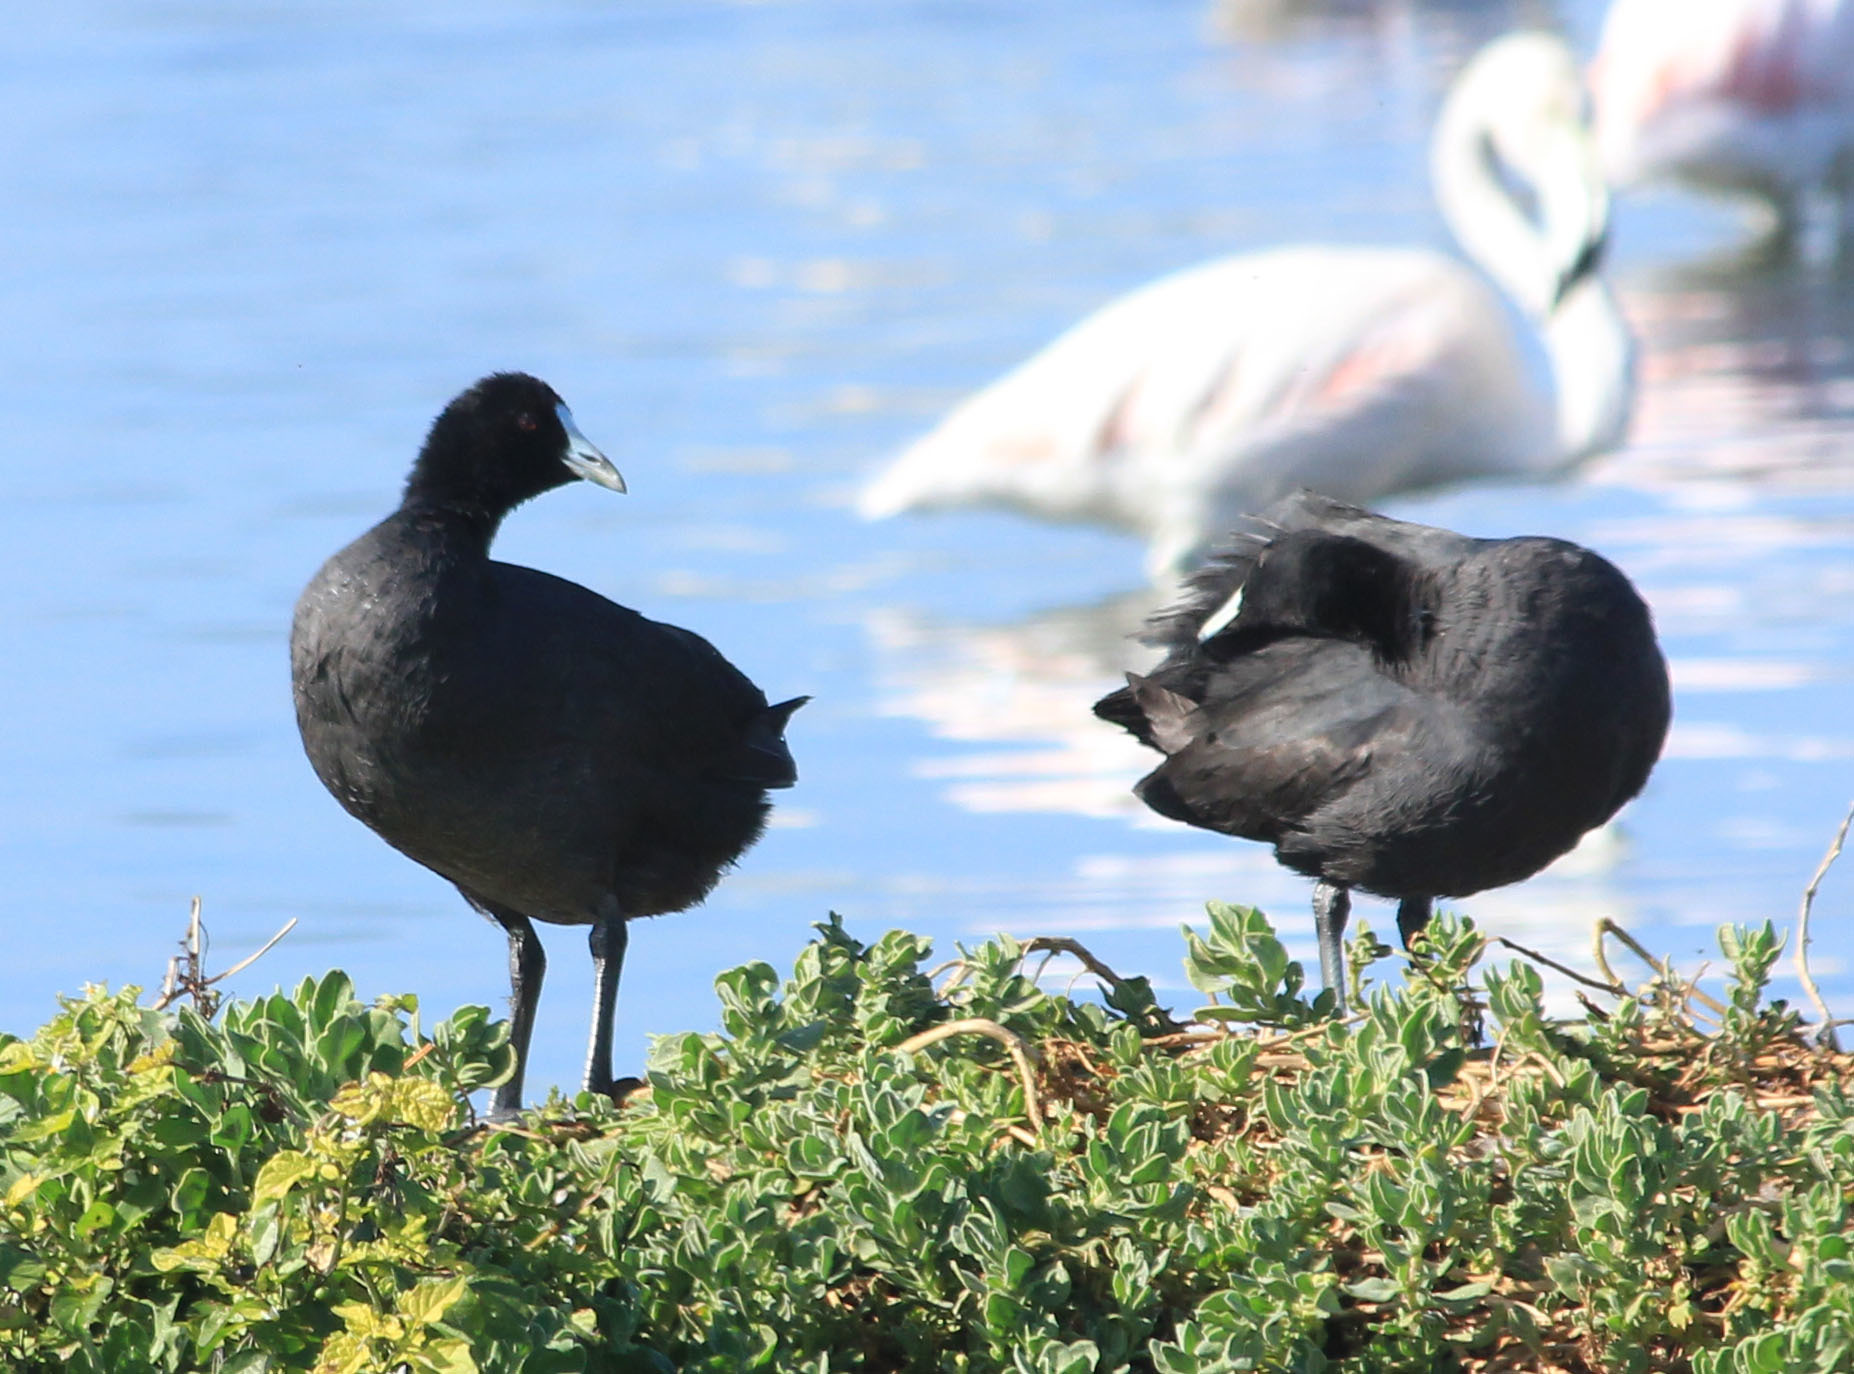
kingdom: Animalia
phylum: Chordata
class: Aves
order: Gruiformes
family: Rallidae
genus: Fulica
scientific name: Fulica cristata
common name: Red-knobbed coot
